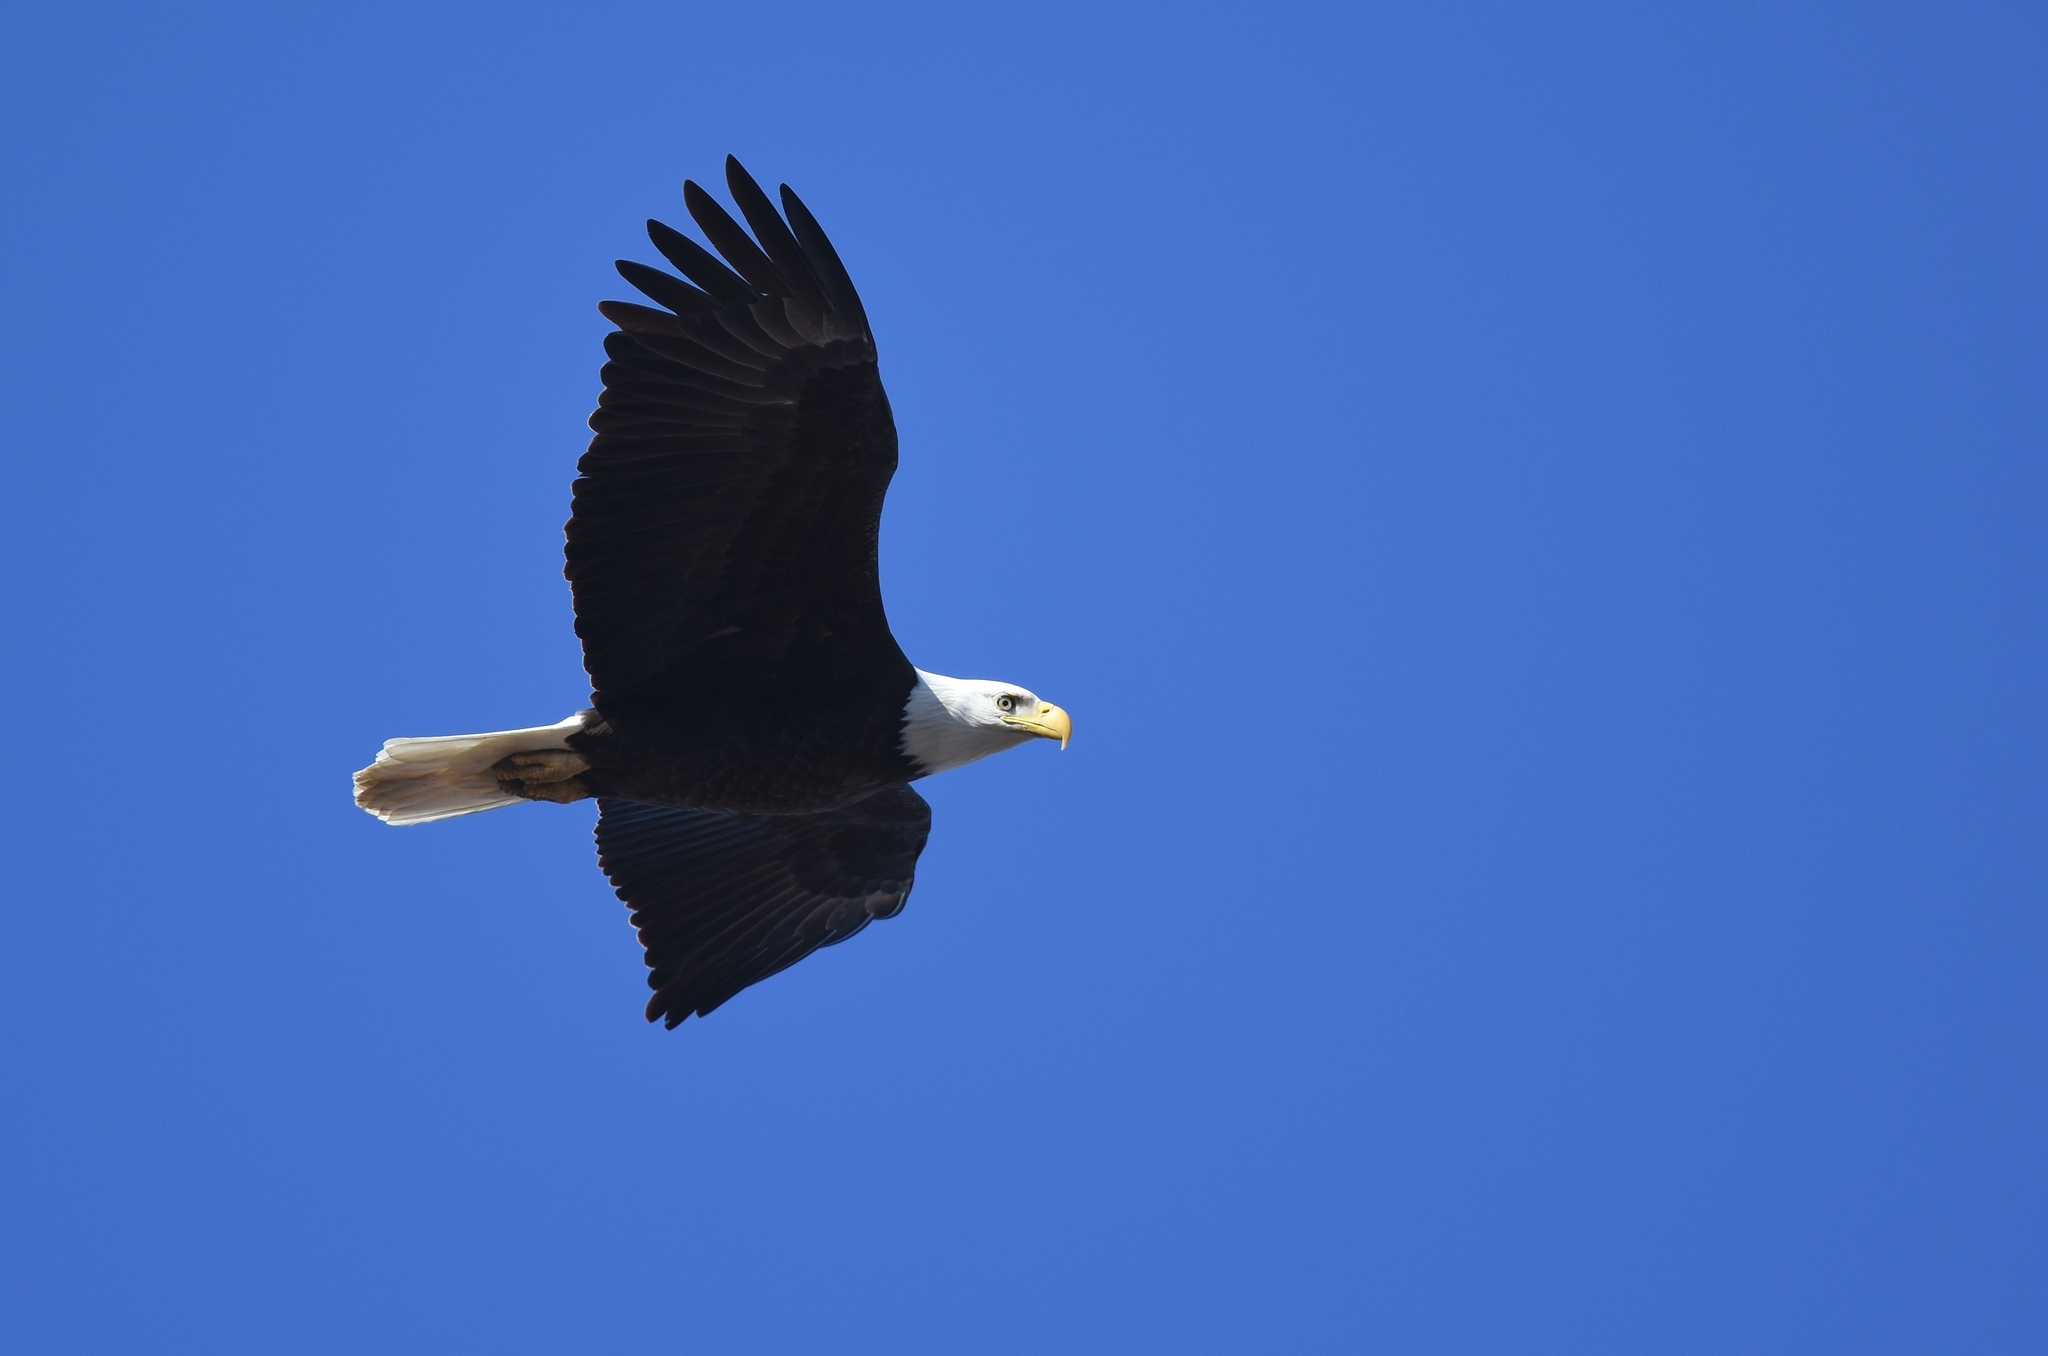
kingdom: Animalia
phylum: Chordata
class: Aves
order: Accipitriformes
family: Accipitridae
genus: Haliaeetus
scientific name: Haliaeetus leucocephalus
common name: Bald eagle
